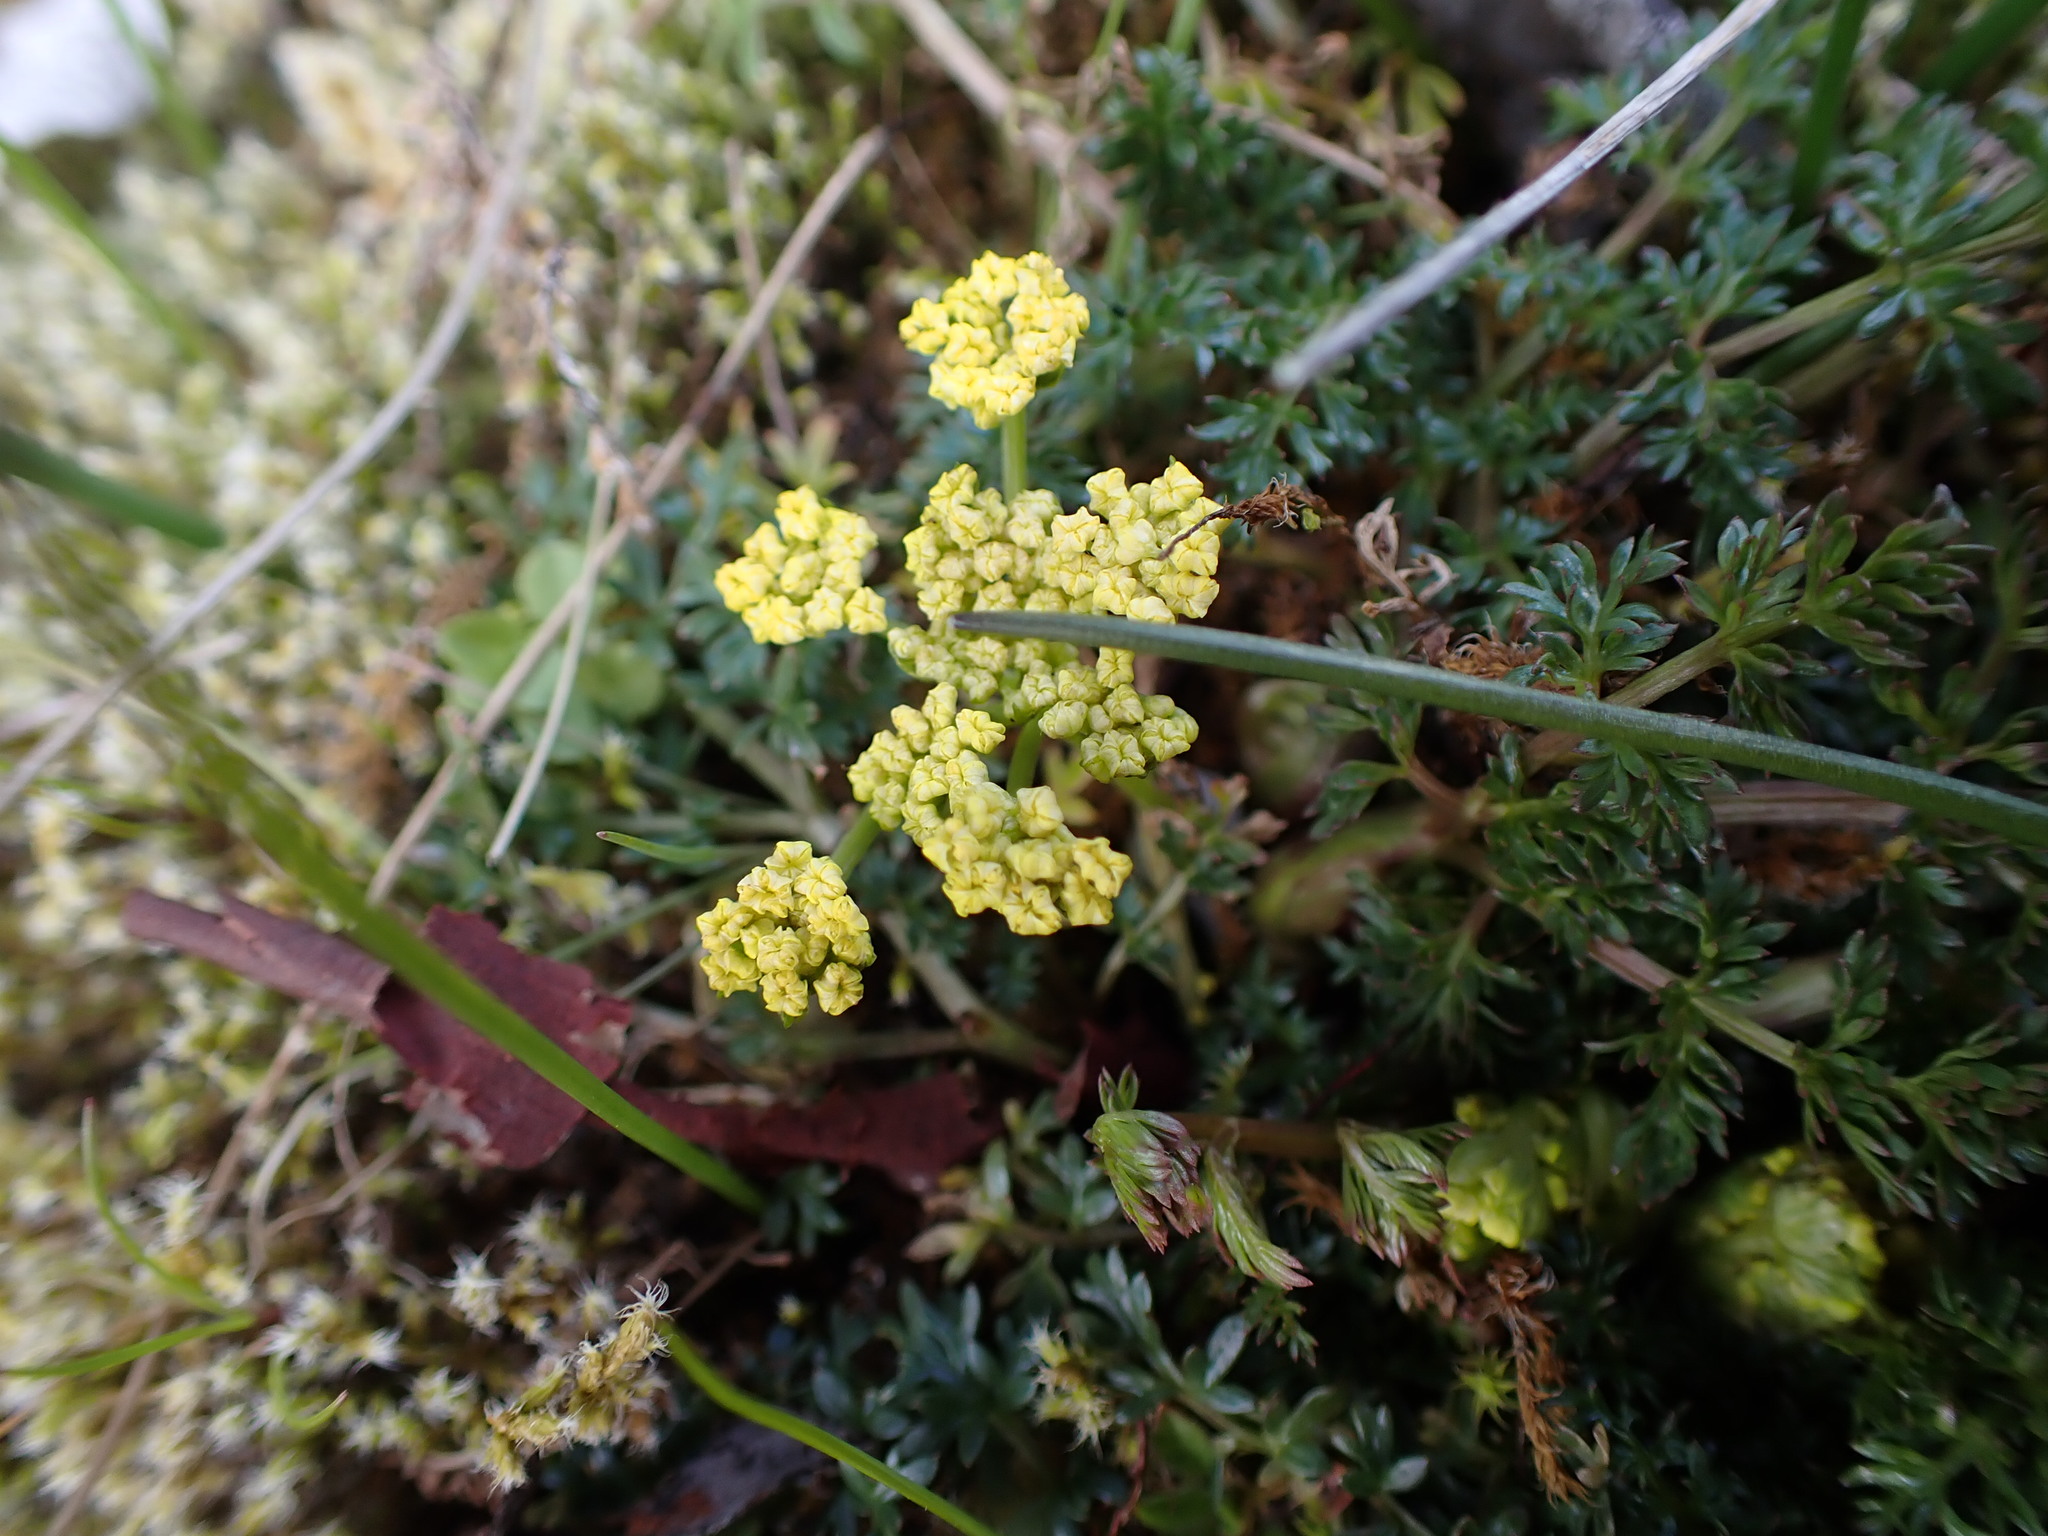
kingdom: Plantae
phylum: Tracheophyta
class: Magnoliopsida
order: Apiales
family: Apiaceae
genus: Lomatium
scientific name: Lomatium utriculatum
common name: Fine-leaf desert-parsley
